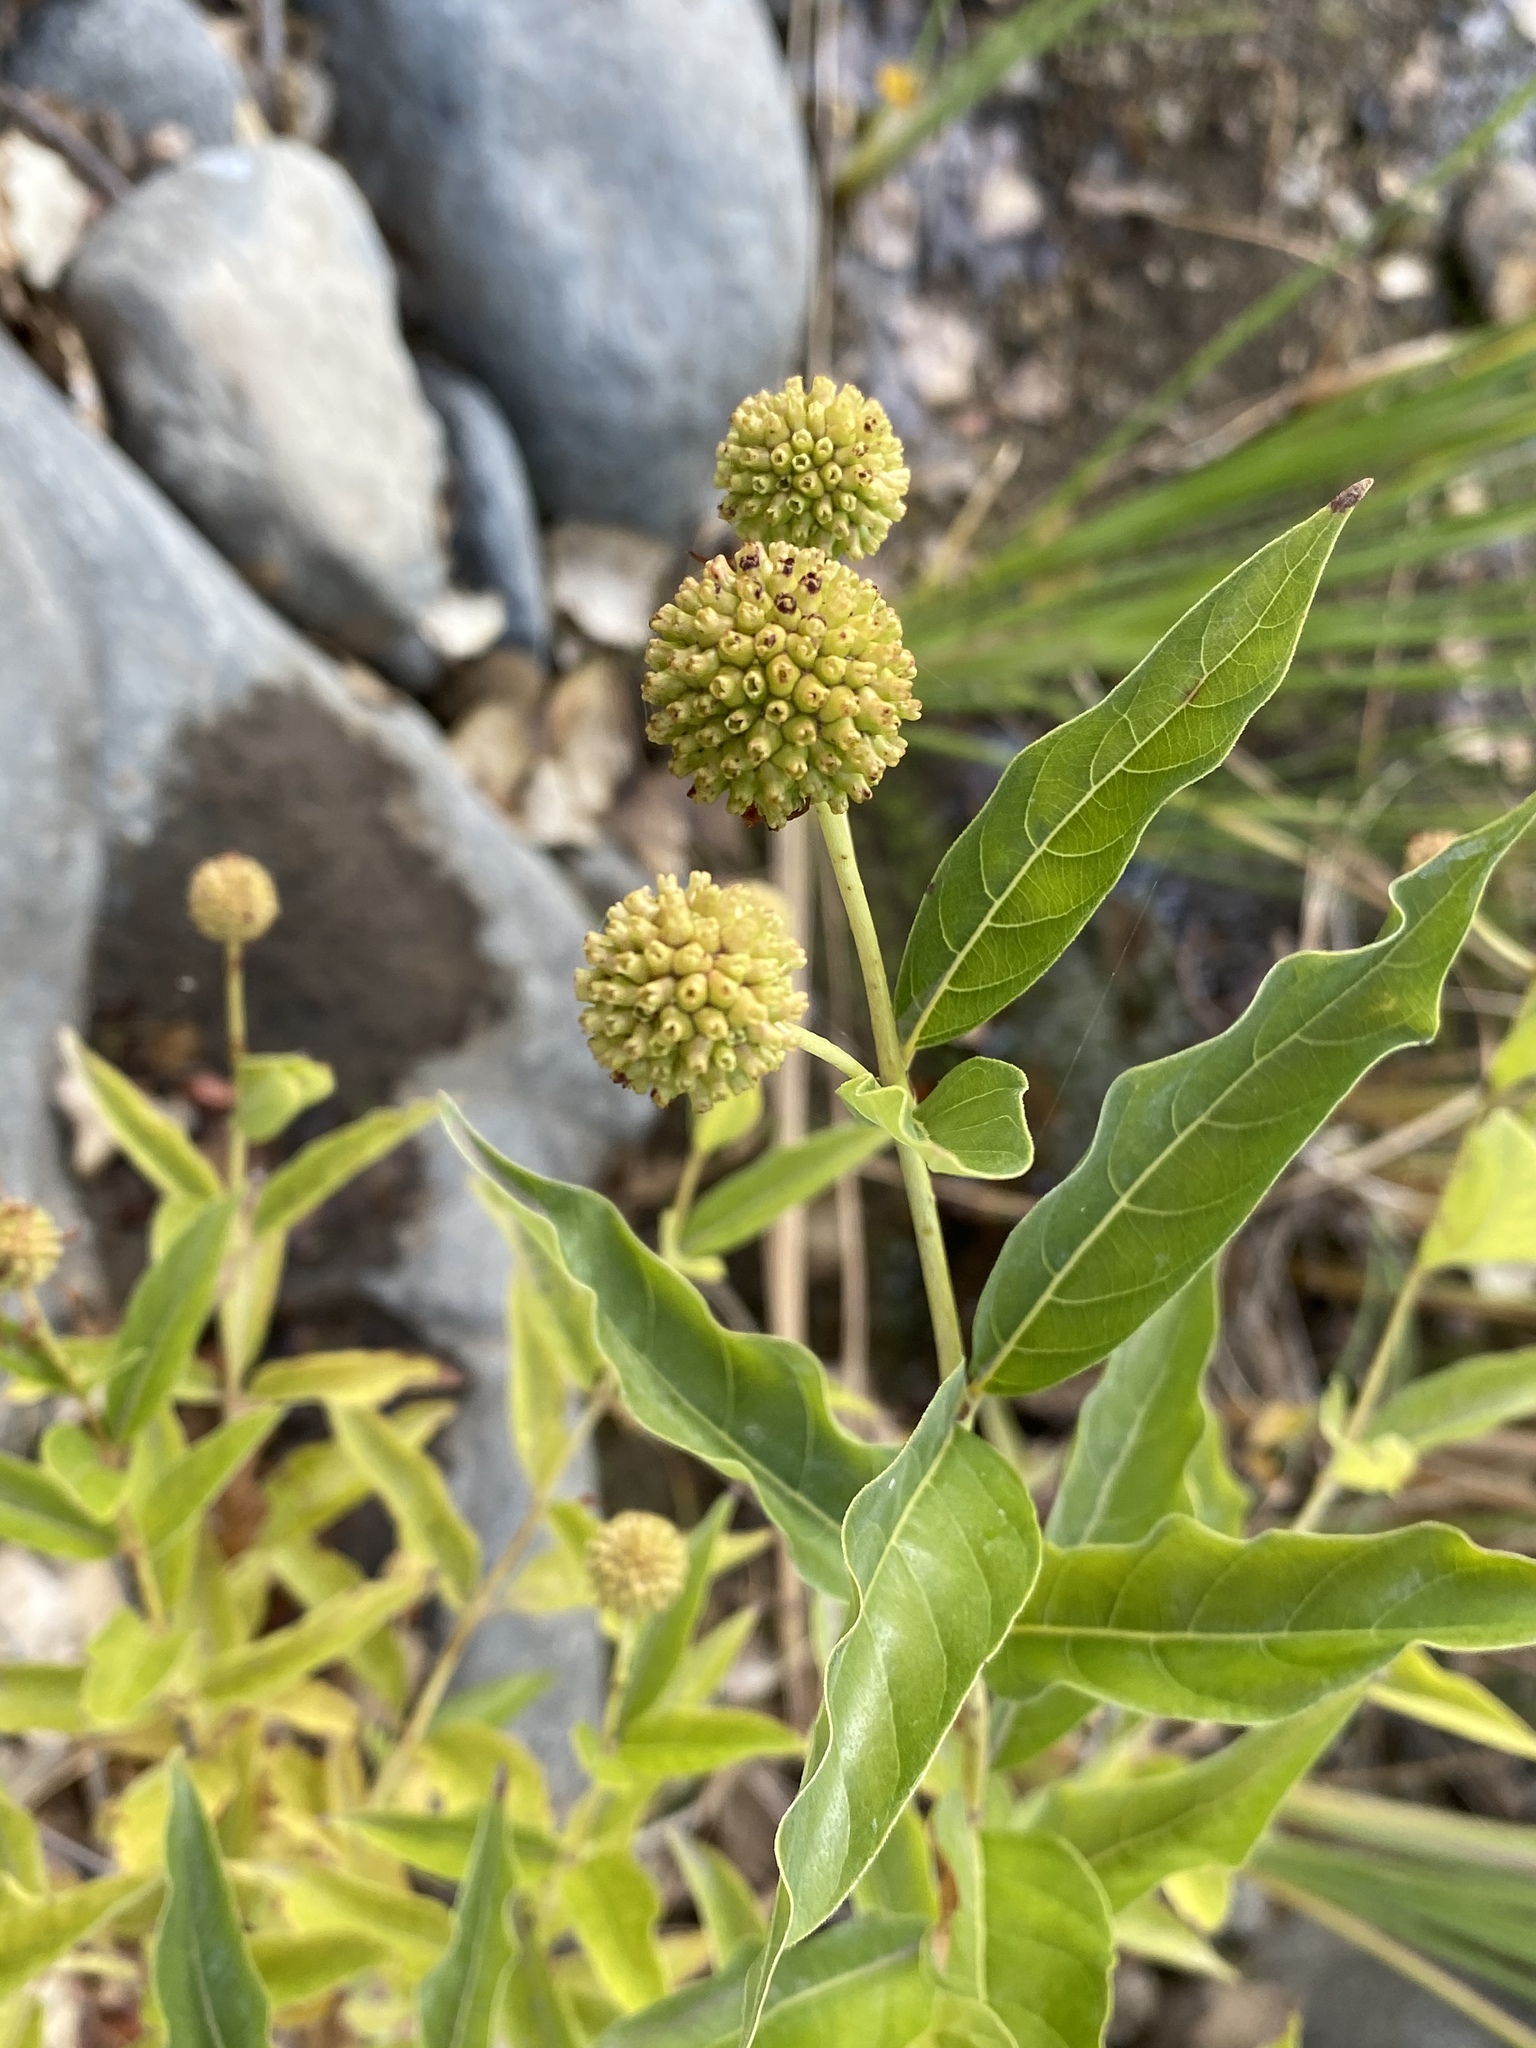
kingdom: Plantae
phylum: Tracheophyta
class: Magnoliopsida
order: Gentianales
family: Rubiaceae
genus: Cephalanthus
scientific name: Cephalanthus occidentalis
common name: Button-willow
